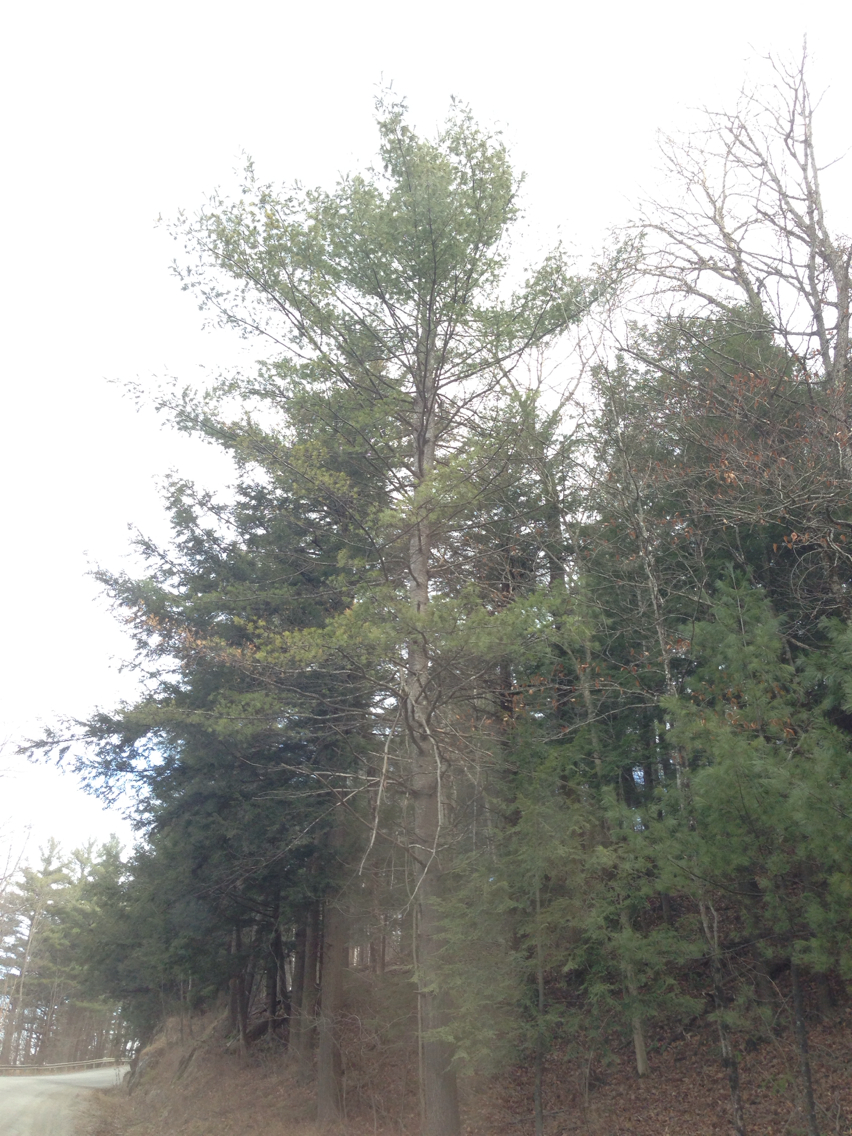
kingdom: Plantae
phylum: Tracheophyta
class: Pinopsida
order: Pinales
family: Pinaceae
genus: Pinus
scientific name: Pinus strobus
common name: Weymouth pine
